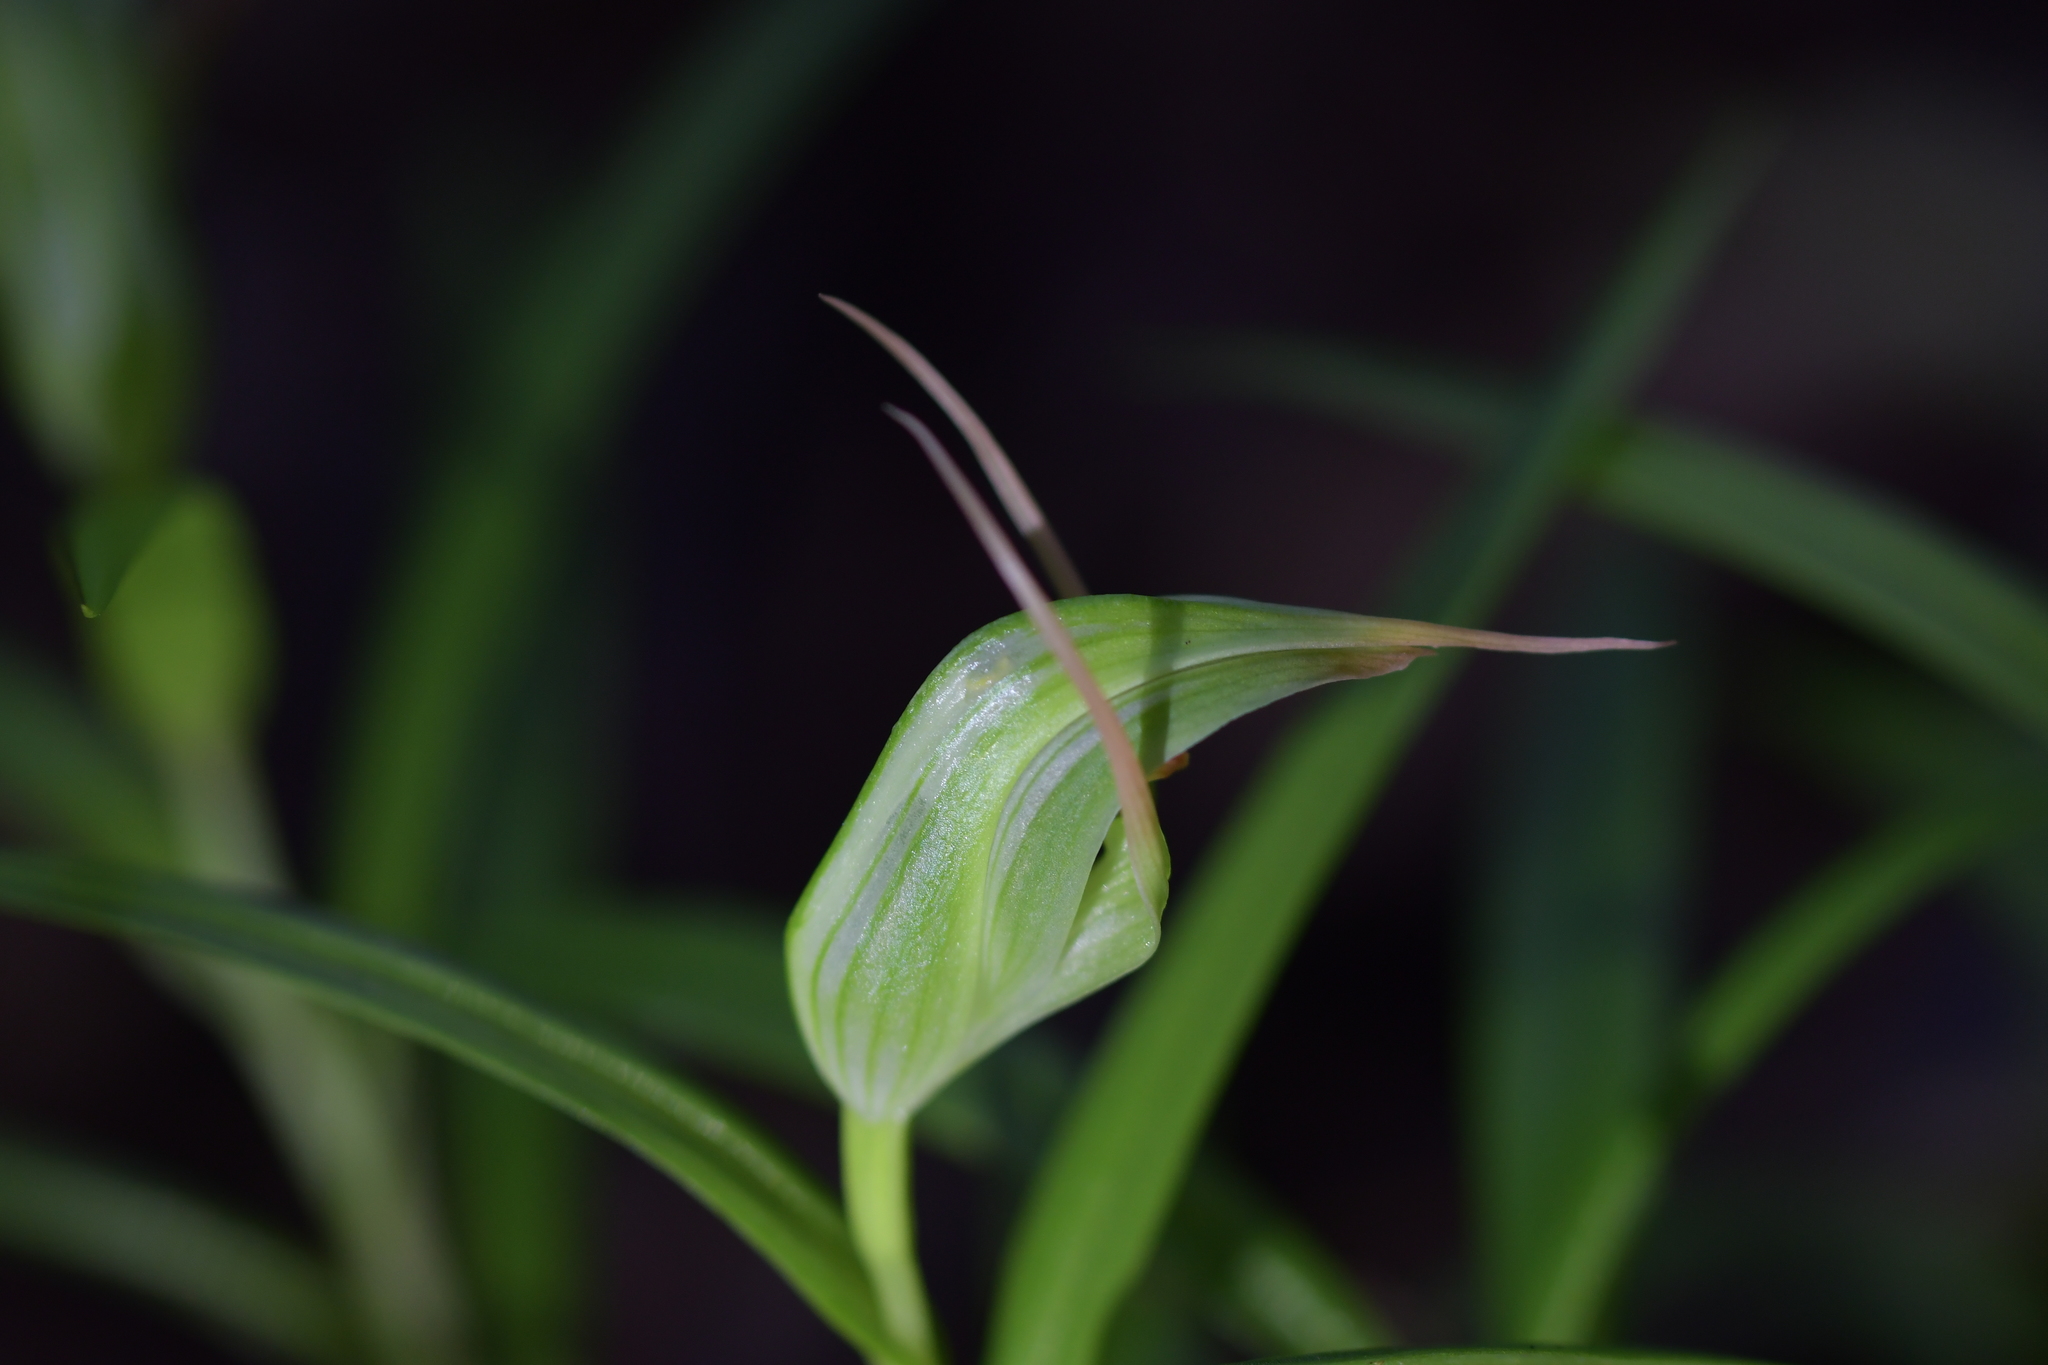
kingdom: Plantae
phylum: Tracheophyta
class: Liliopsida
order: Asparagales
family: Orchidaceae
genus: Pterostylis
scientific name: Pterostylis banksii
